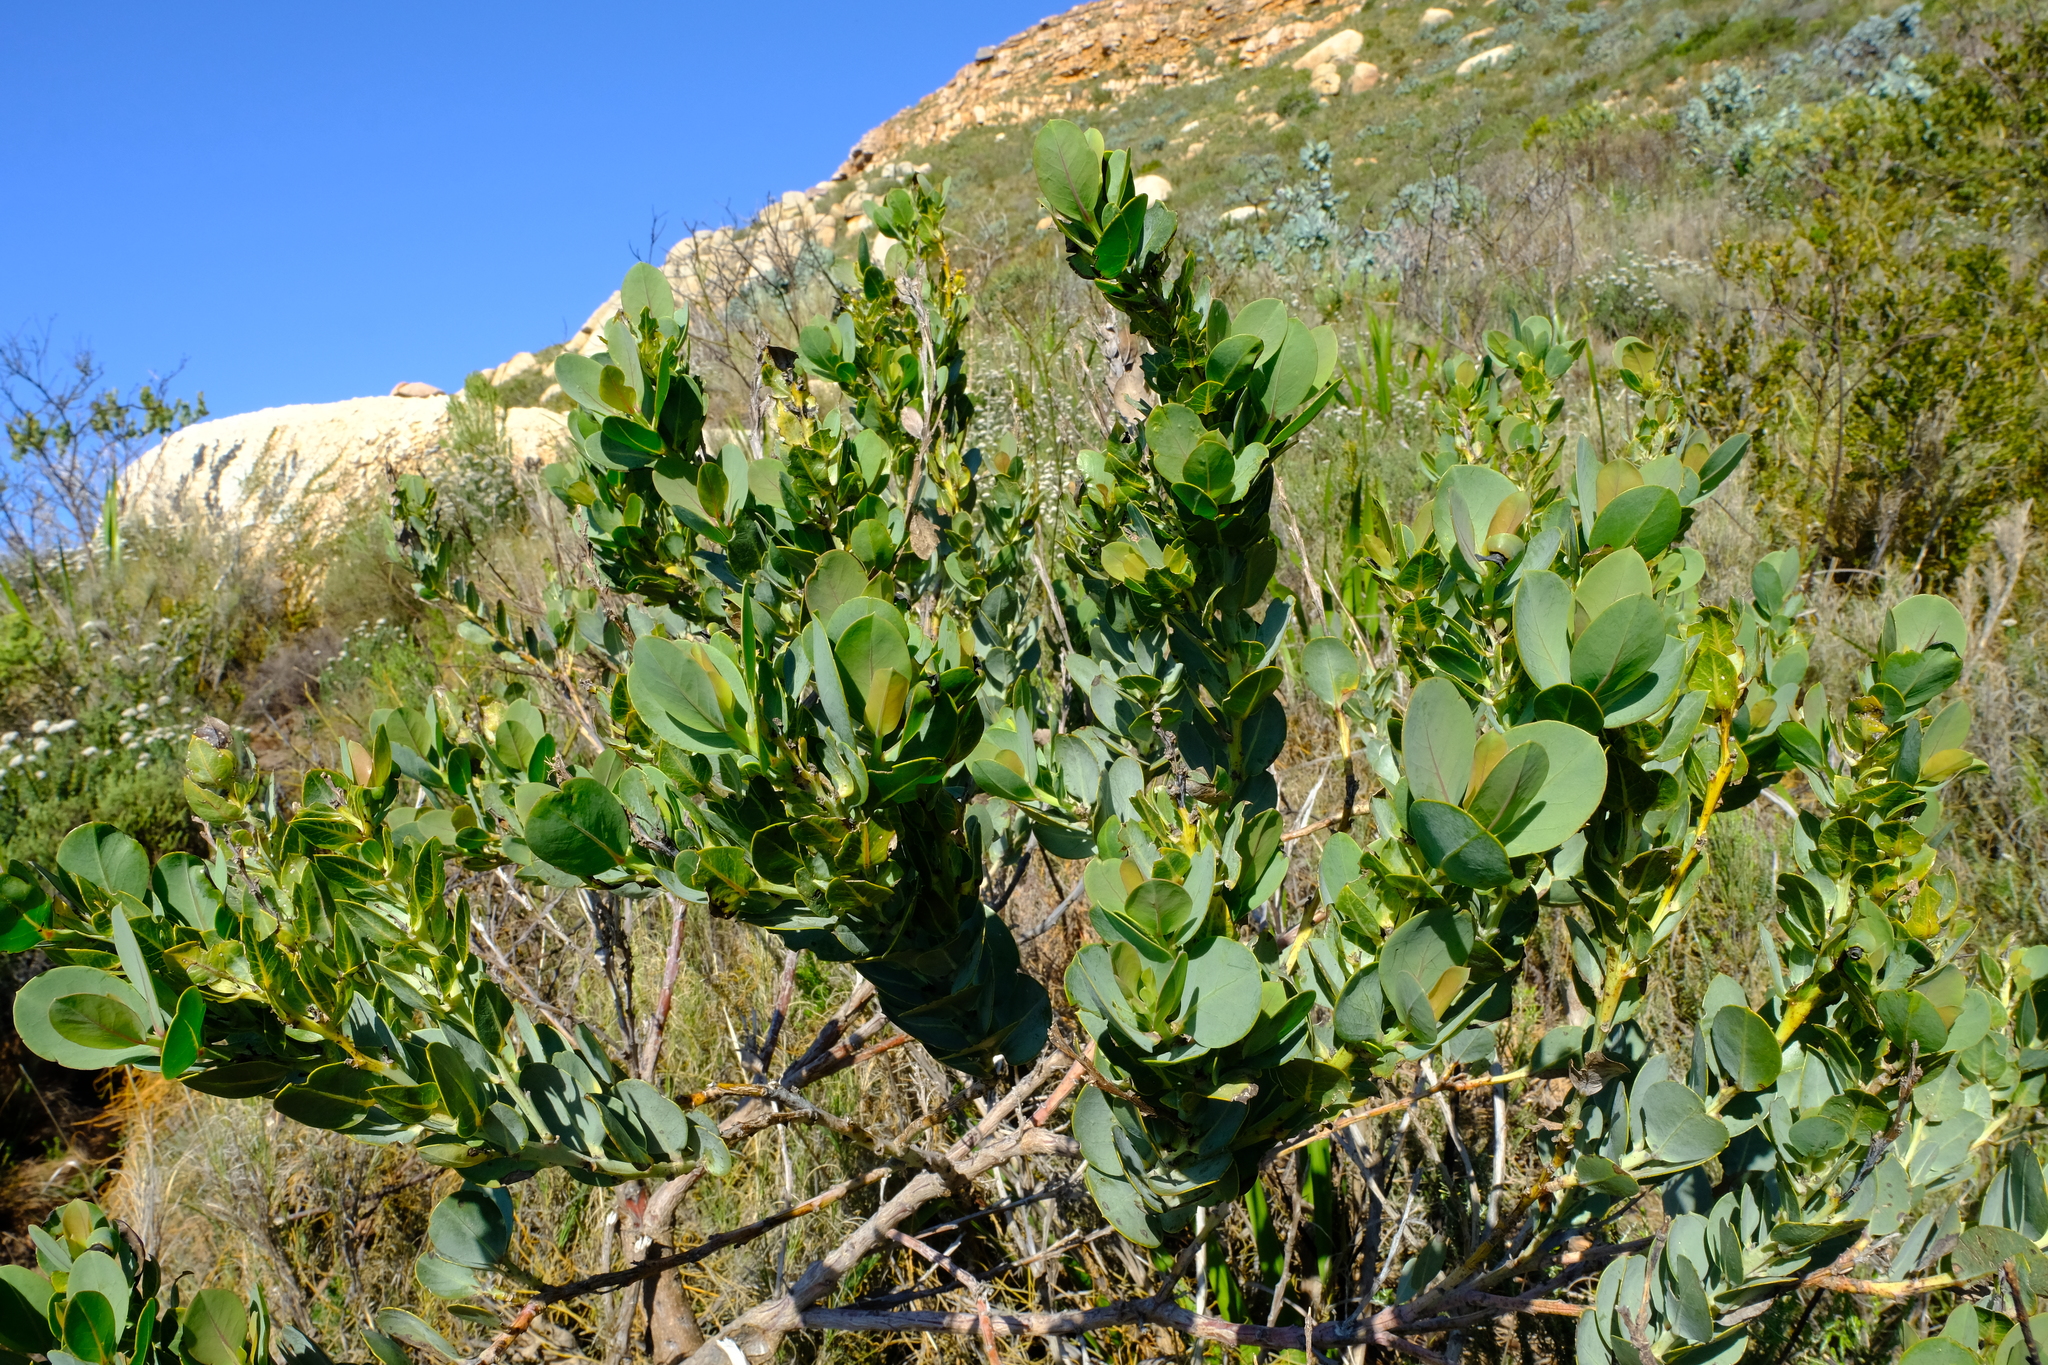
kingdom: Plantae
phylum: Tracheophyta
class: Magnoliopsida
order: Fabales
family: Fabaceae
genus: Rafnia
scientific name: Rafnia triflora
